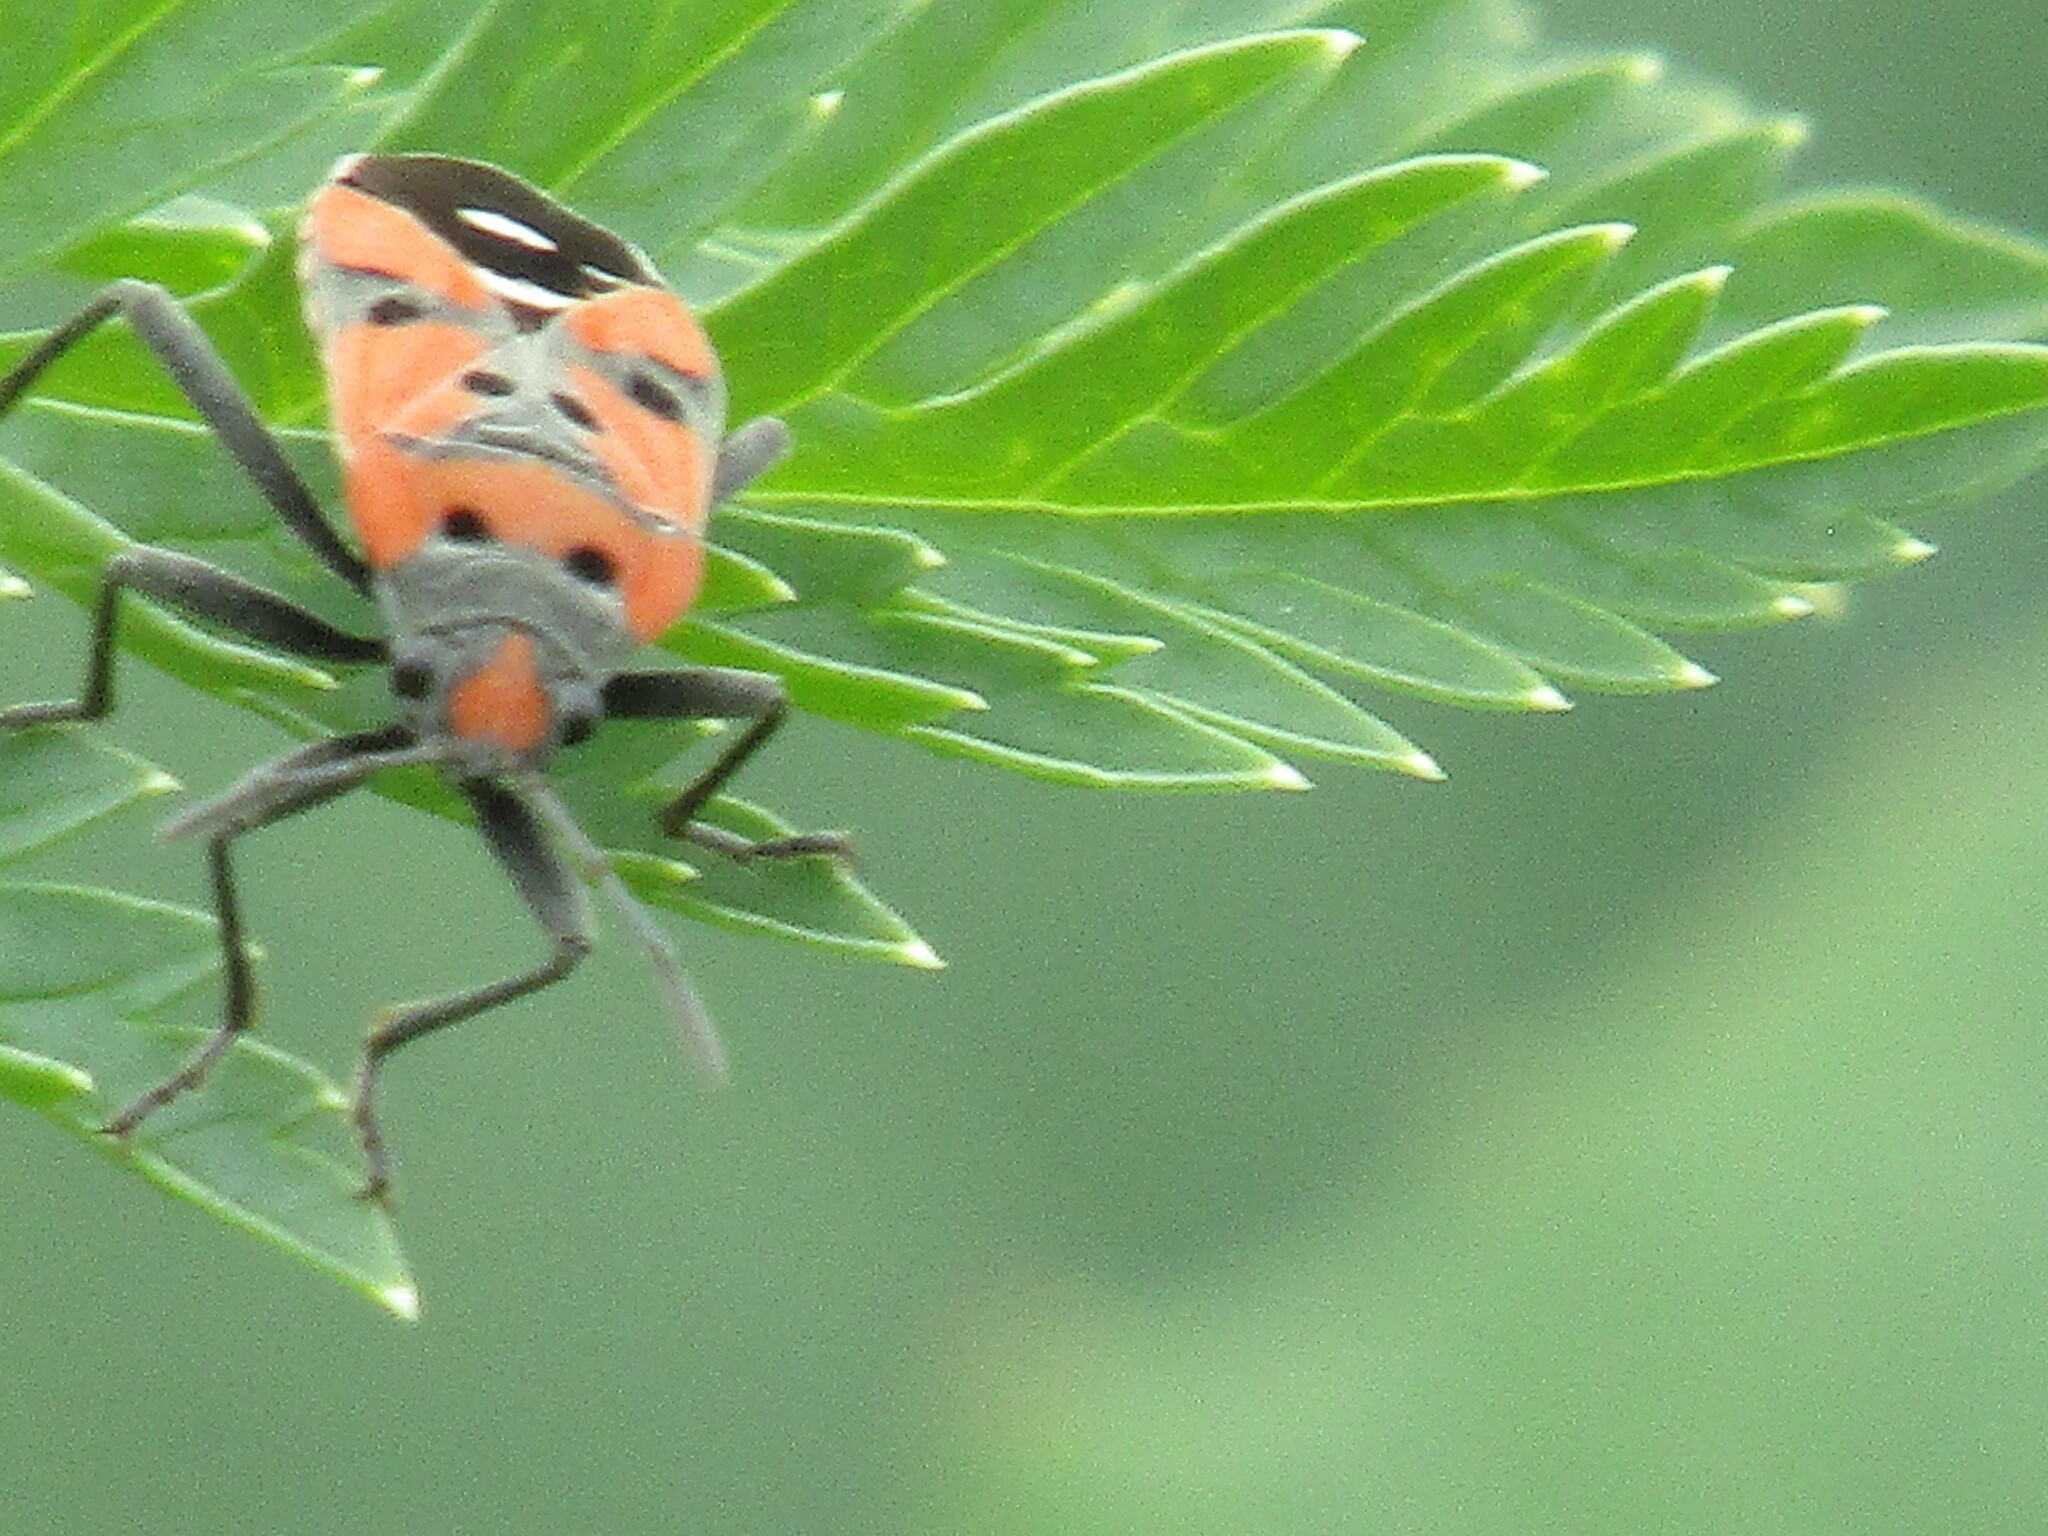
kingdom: Animalia
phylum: Arthropoda
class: Insecta
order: Hemiptera
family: Lygaeidae
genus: Lygaeus
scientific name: Lygaeus
